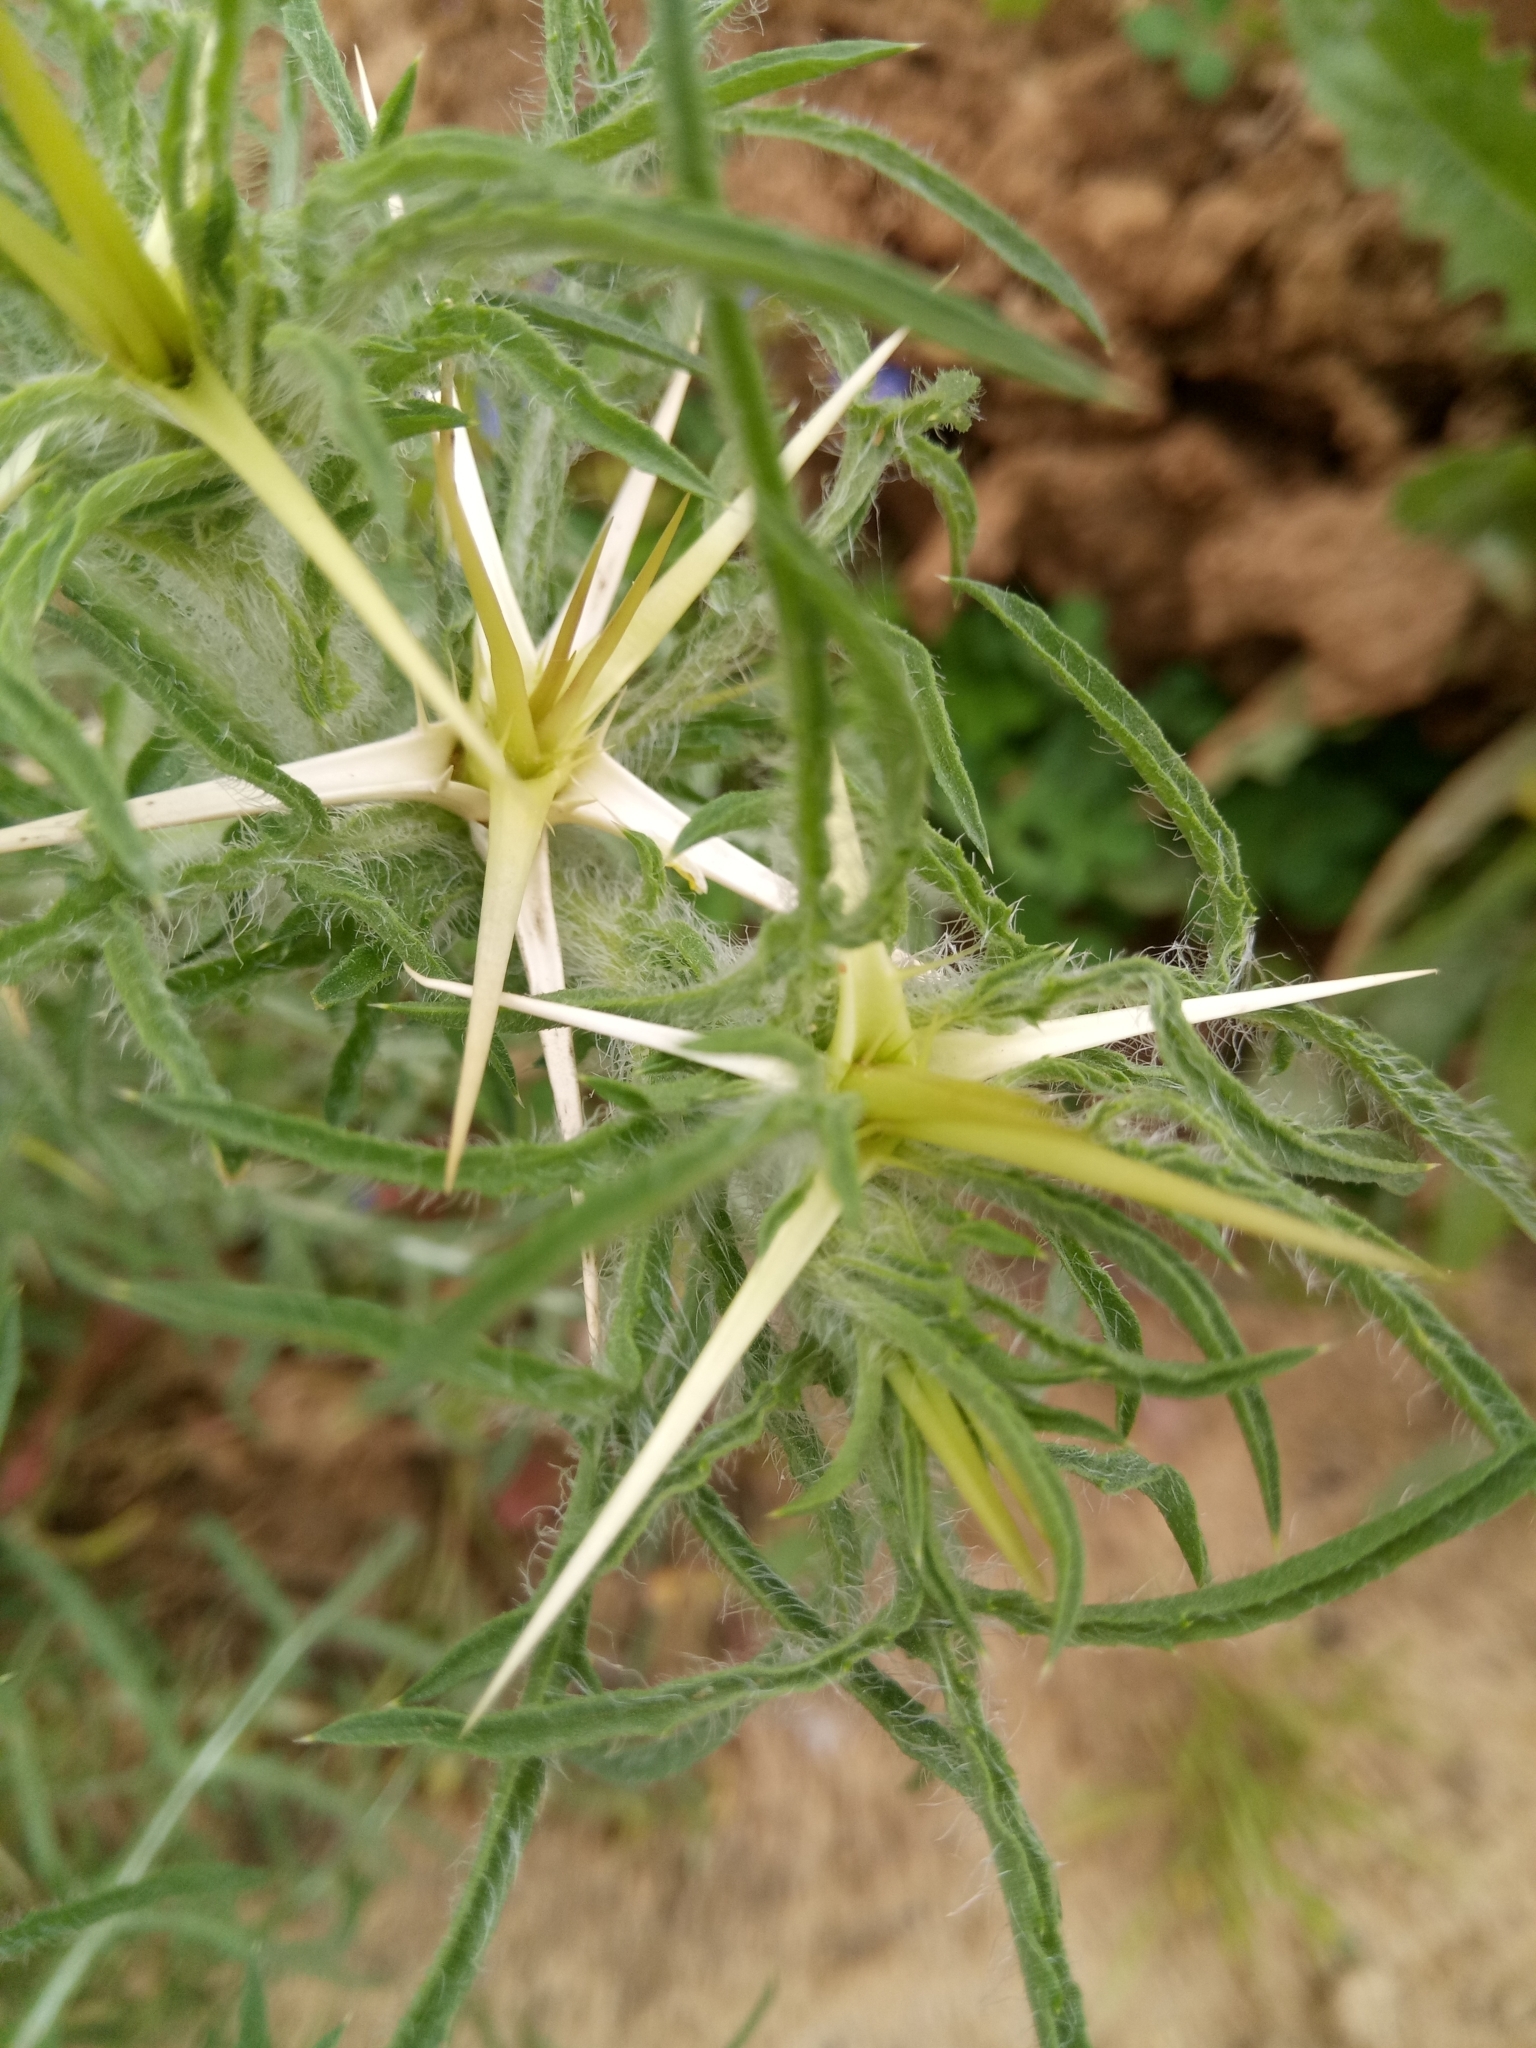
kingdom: Plantae
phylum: Tracheophyta
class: Magnoliopsida
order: Asterales
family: Asteraceae
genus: Centaurea
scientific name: Centaurea calcitrapa
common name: Red star-thistle
